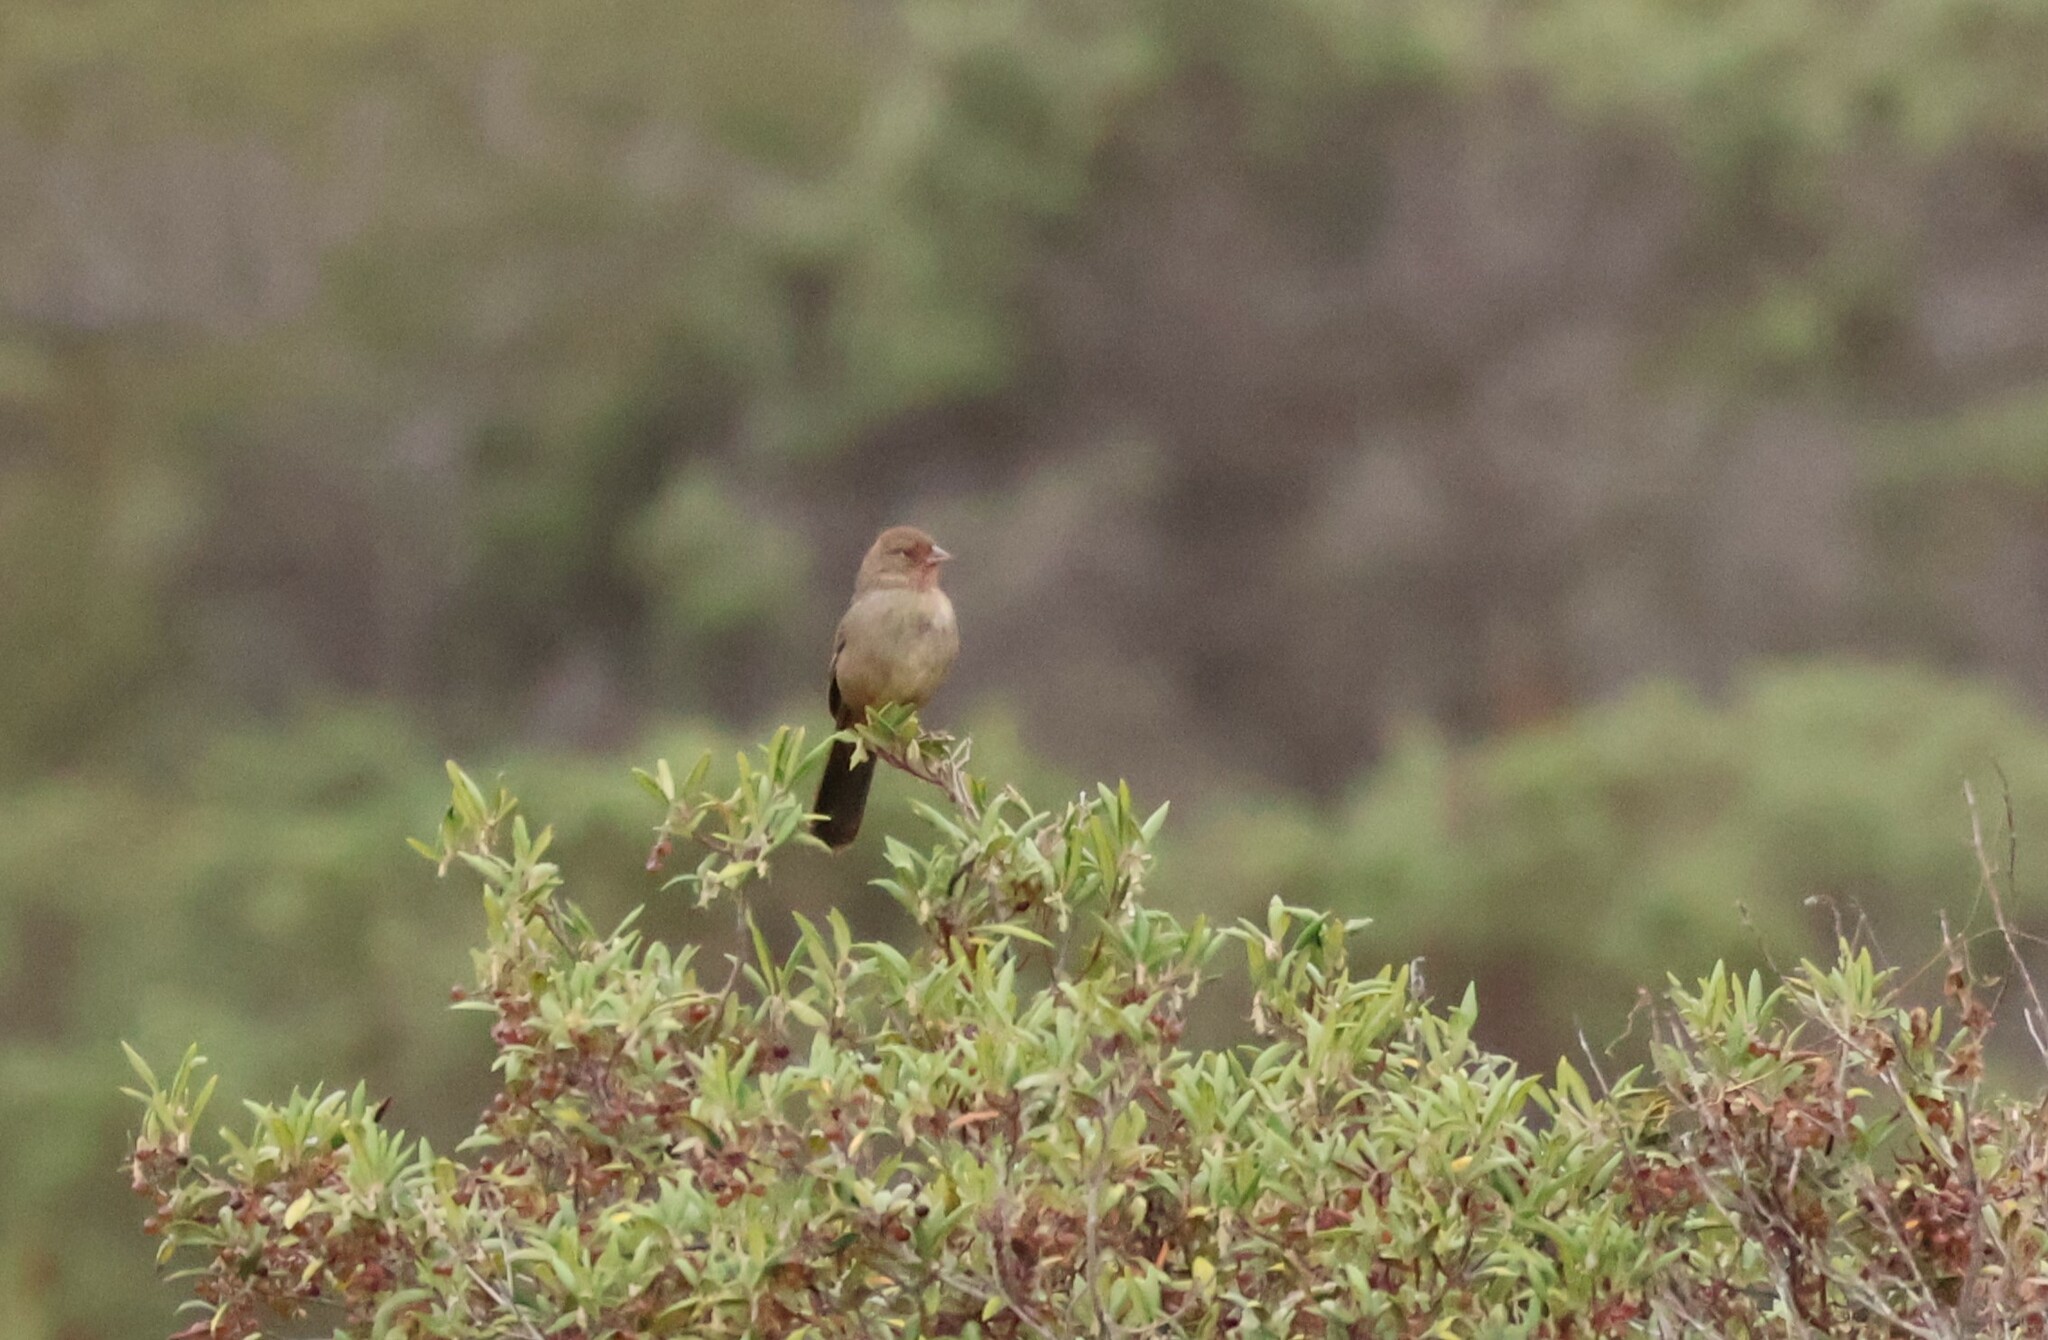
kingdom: Animalia
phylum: Chordata
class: Aves
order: Passeriformes
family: Passerellidae
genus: Melozone
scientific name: Melozone crissalis
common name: California towhee
